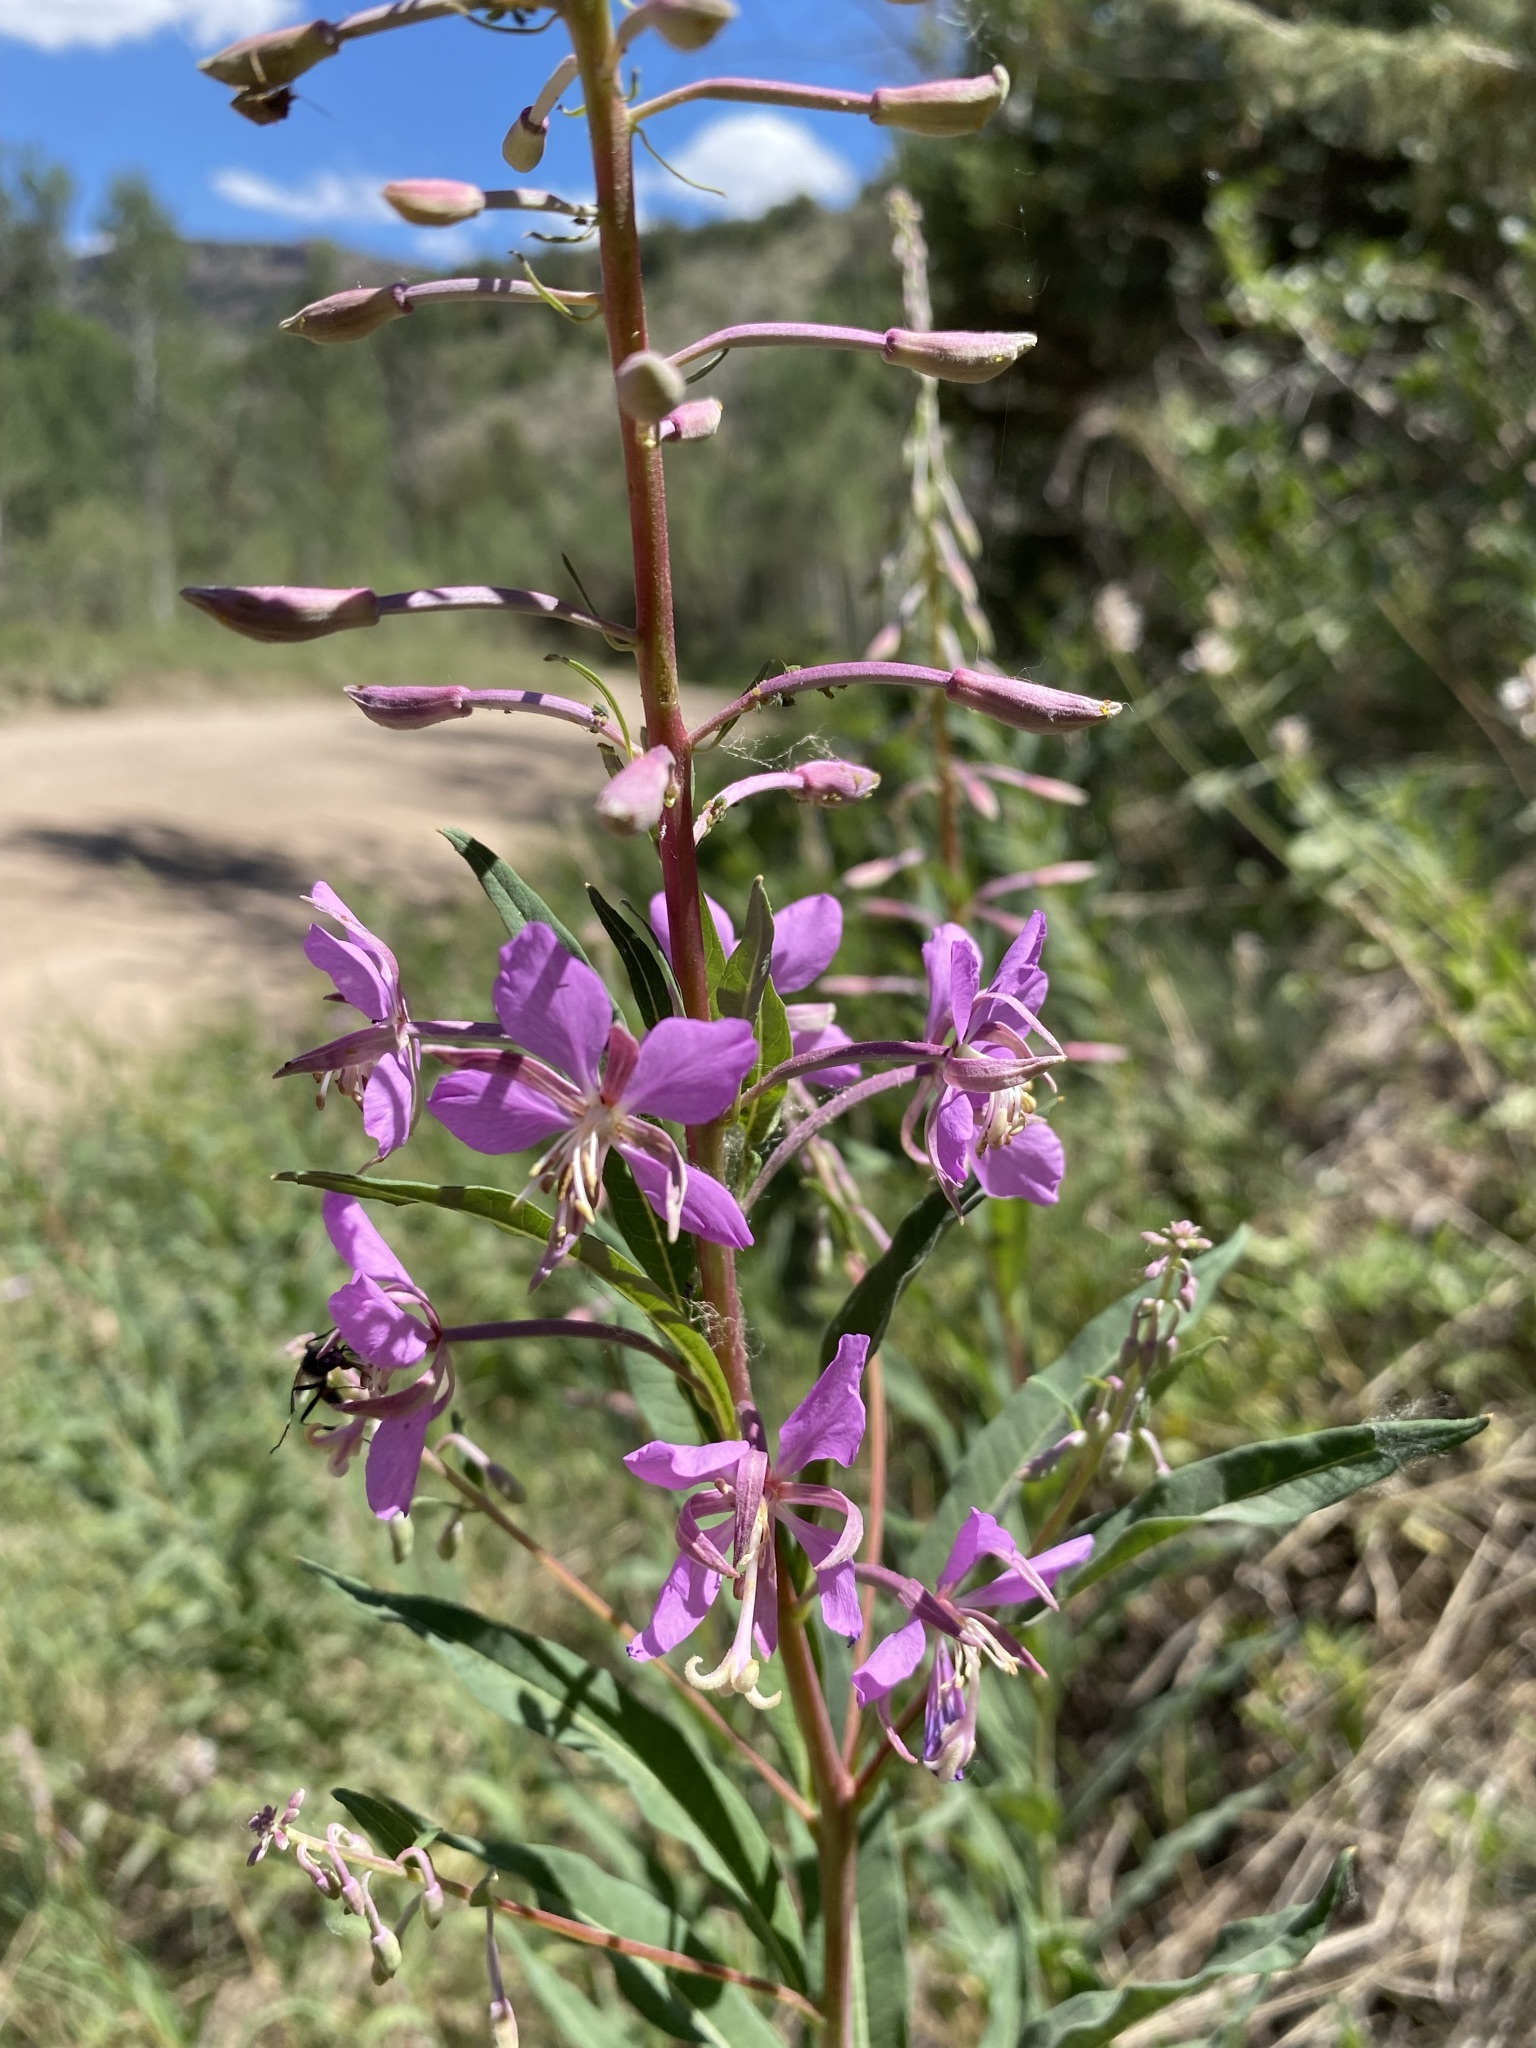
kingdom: Plantae
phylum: Tracheophyta
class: Magnoliopsida
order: Myrtales
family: Onagraceae
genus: Chamaenerion
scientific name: Chamaenerion angustifolium
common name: Fireweed
